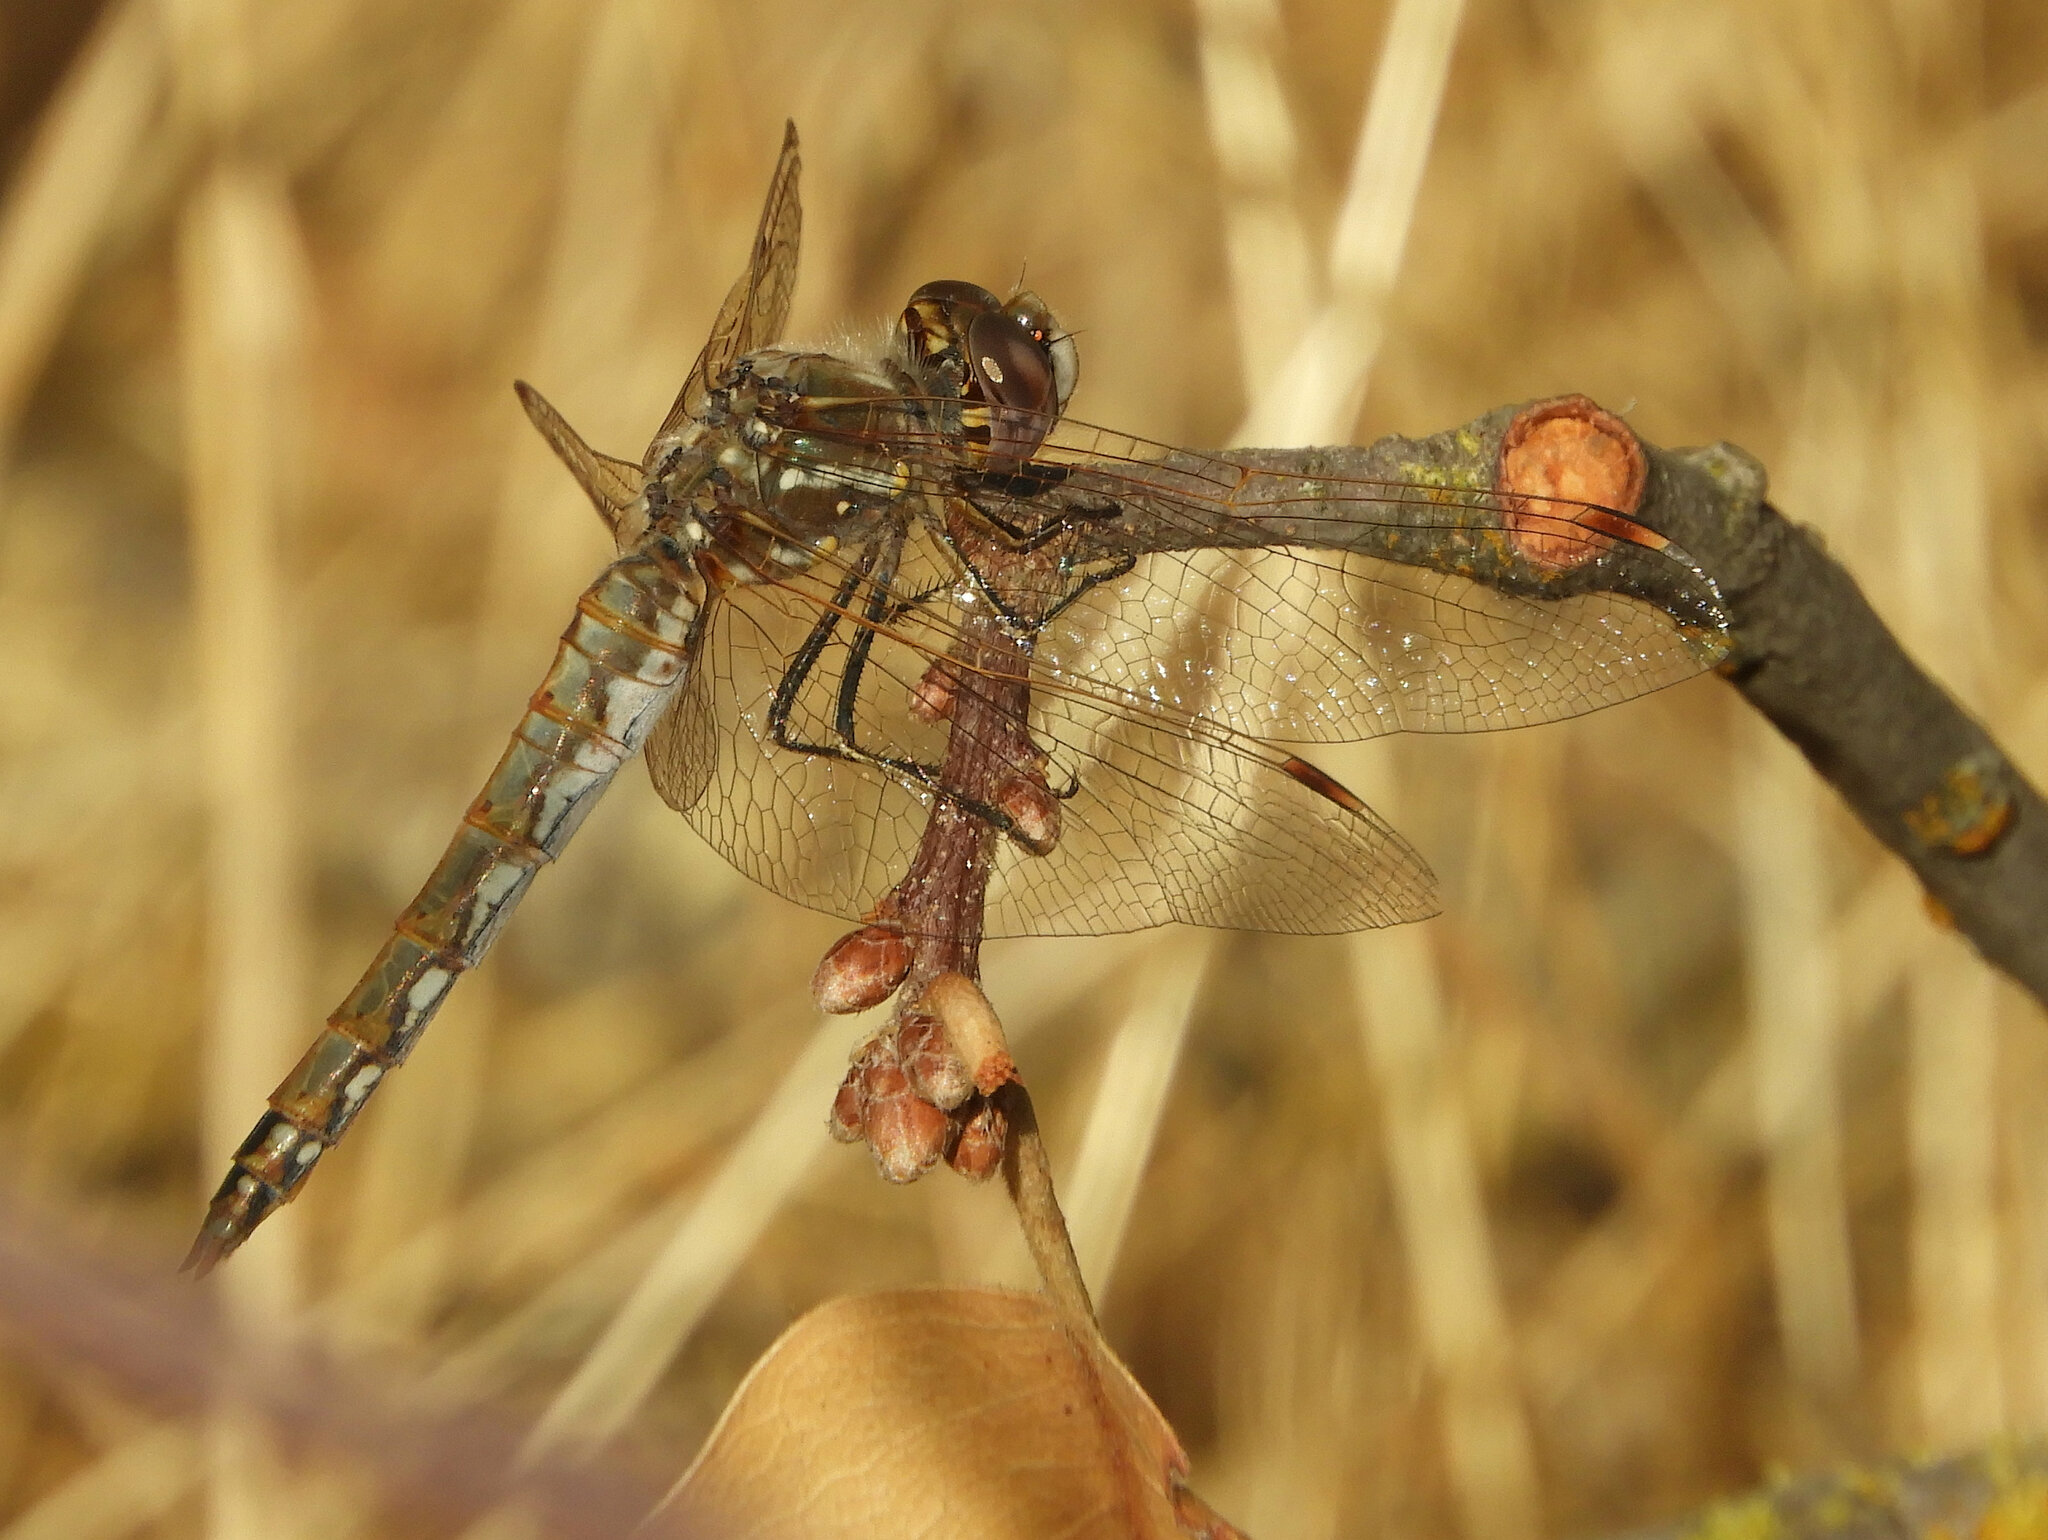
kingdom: Animalia
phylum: Arthropoda
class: Insecta
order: Odonata
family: Libellulidae
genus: Sympetrum
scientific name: Sympetrum corruptum
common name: Variegated meadowhawk
